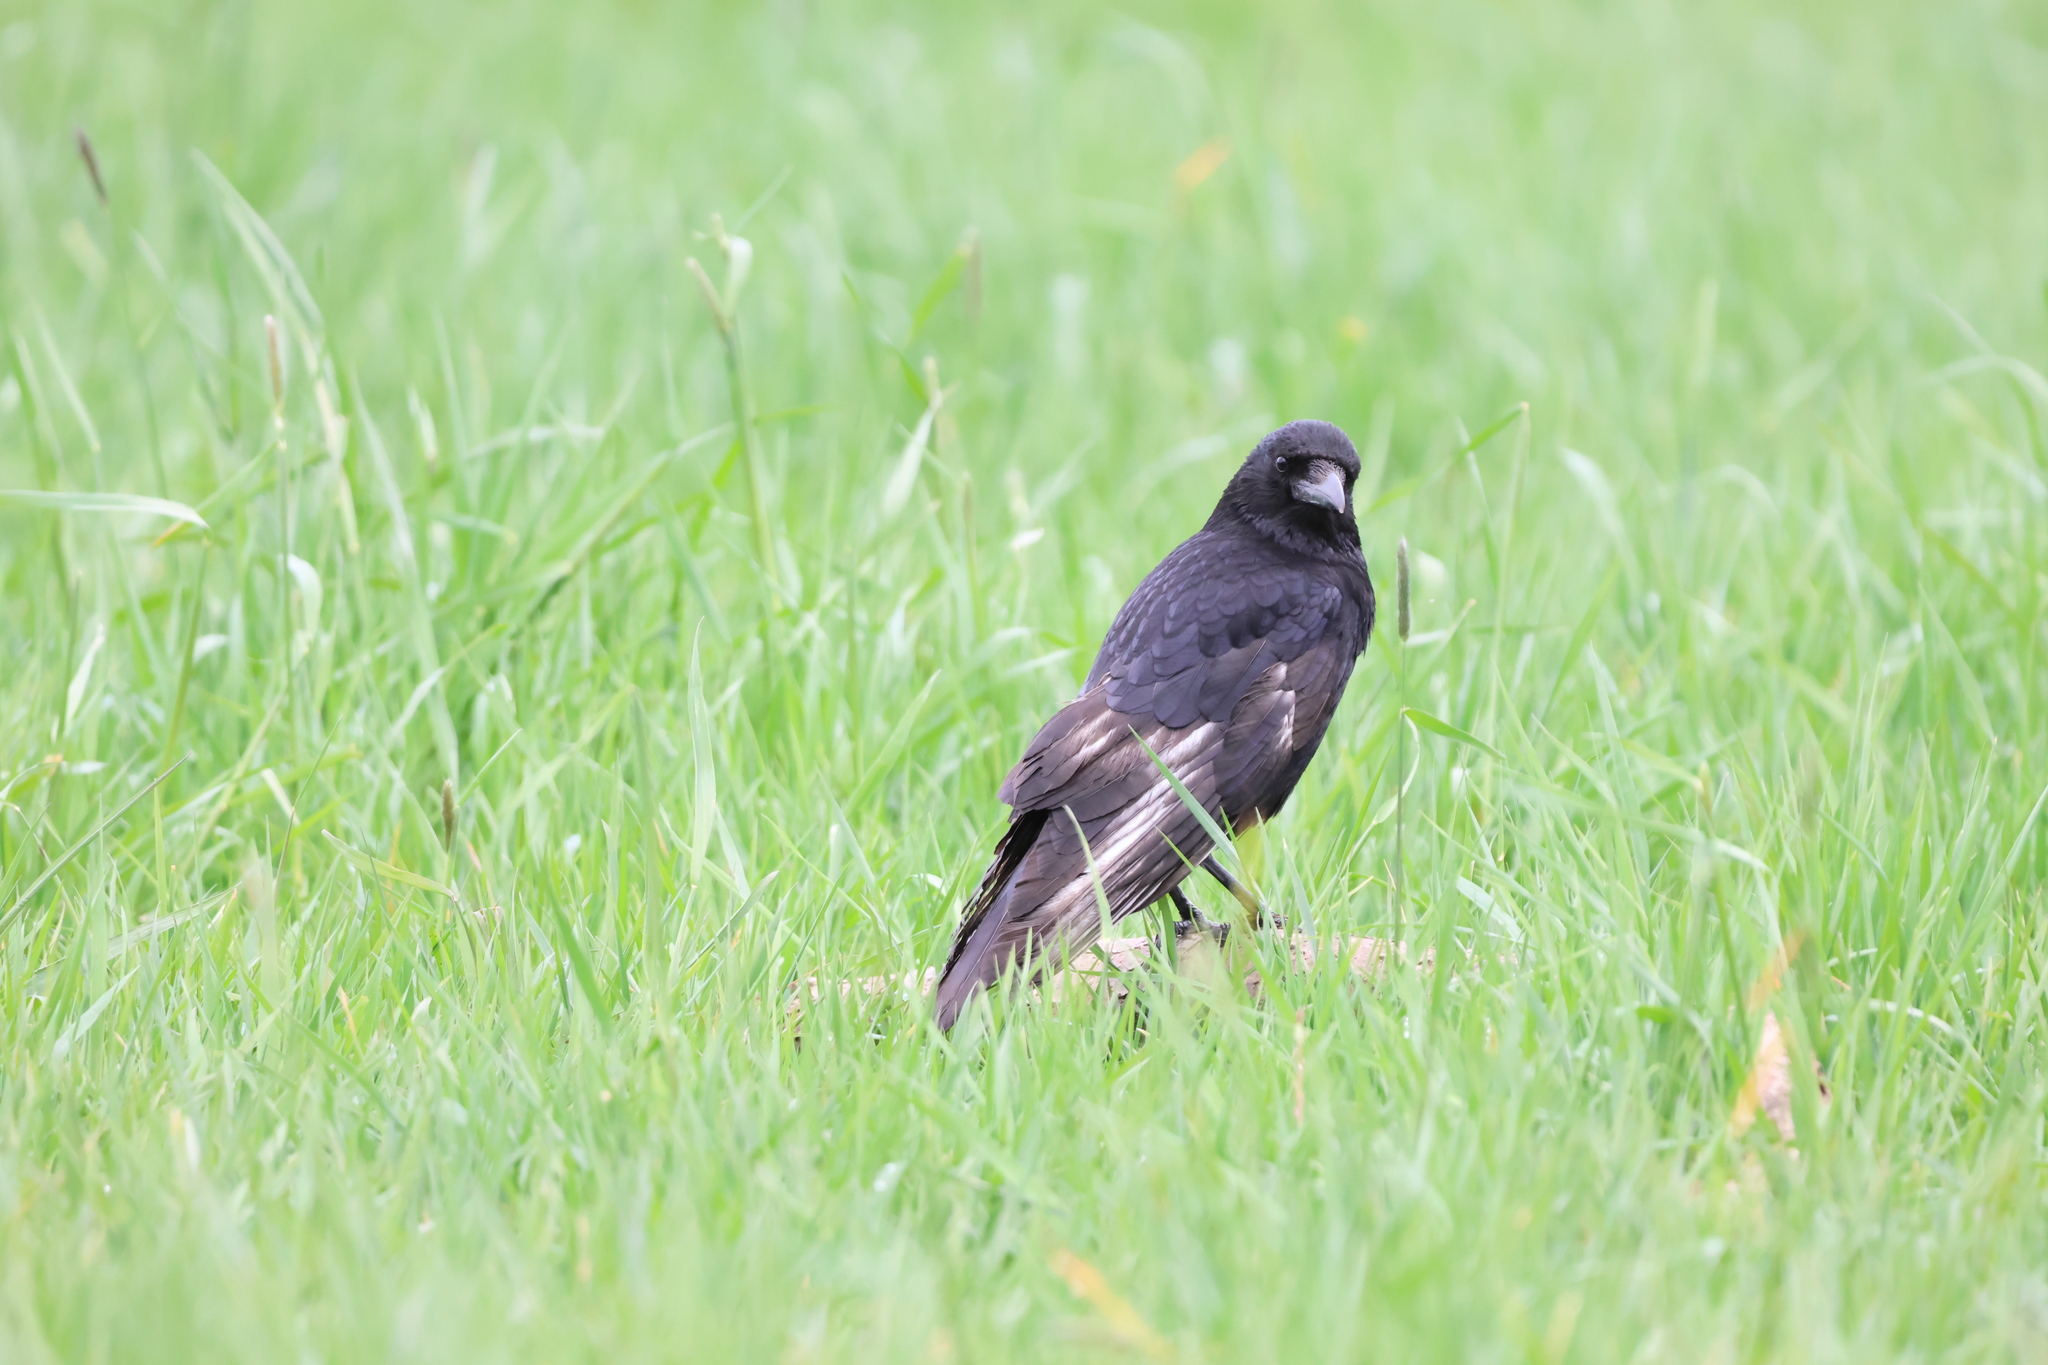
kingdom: Animalia
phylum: Chordata
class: Aves
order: Passeriformes
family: Corvidae
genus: Corvus
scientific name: Corvus corone
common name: Carrion crow
